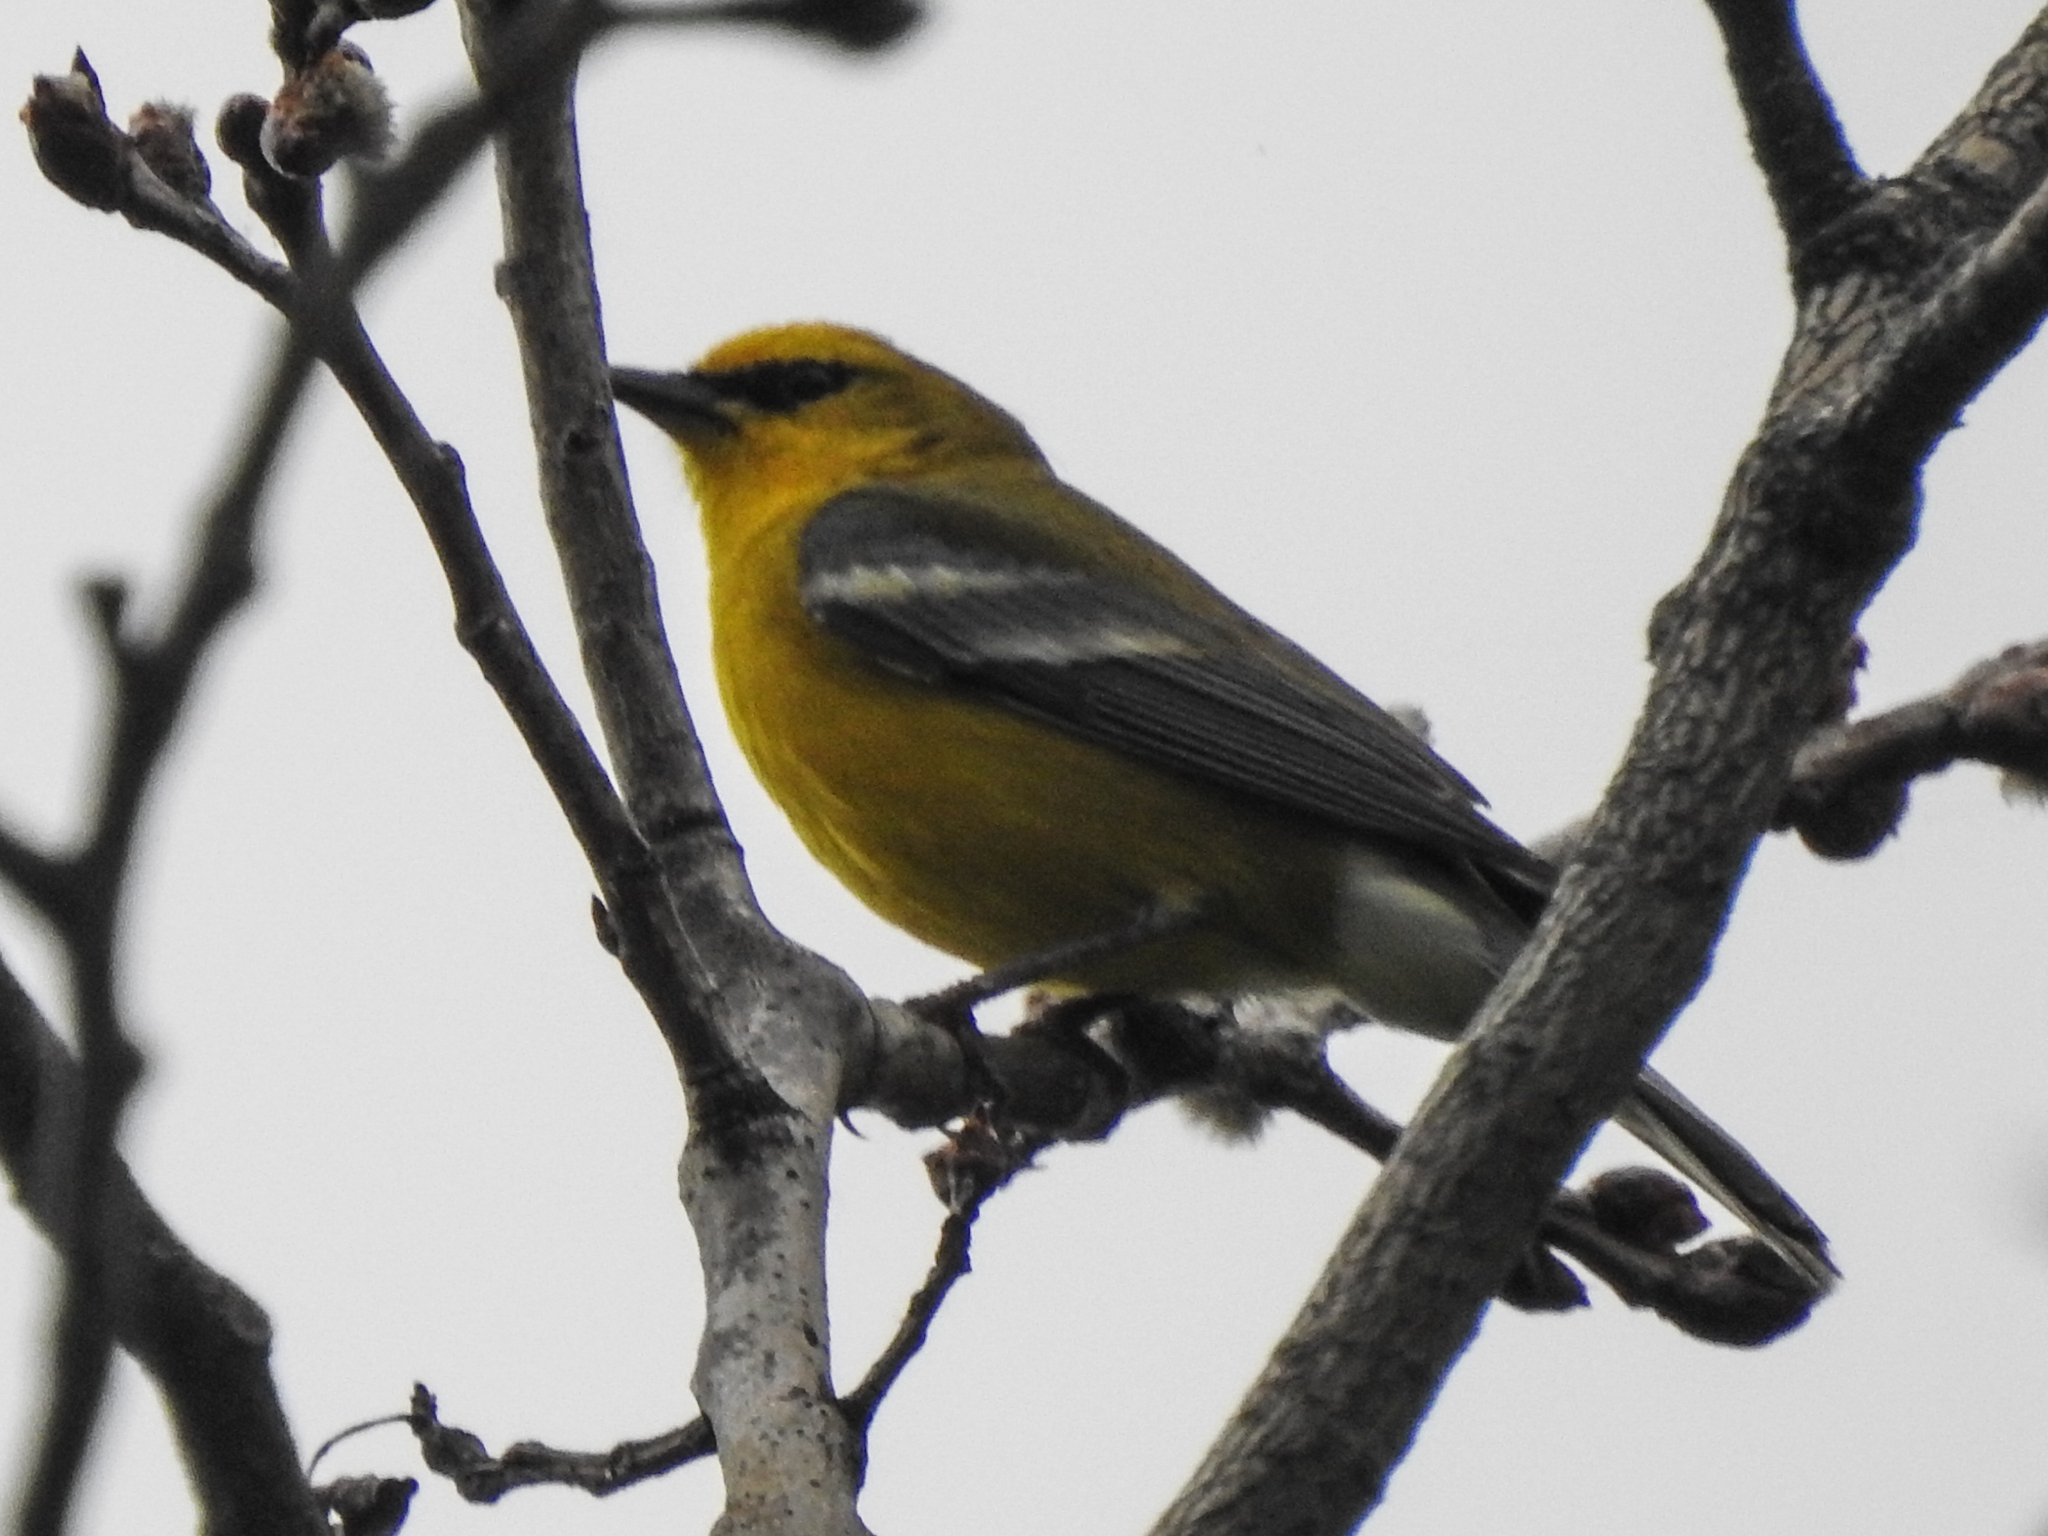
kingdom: Animalia
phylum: Chordata
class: Aves
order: Passeriformes
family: Parulidae
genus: Vermivora
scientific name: Vermivora cyanoptera
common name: Blue-winged warbler
